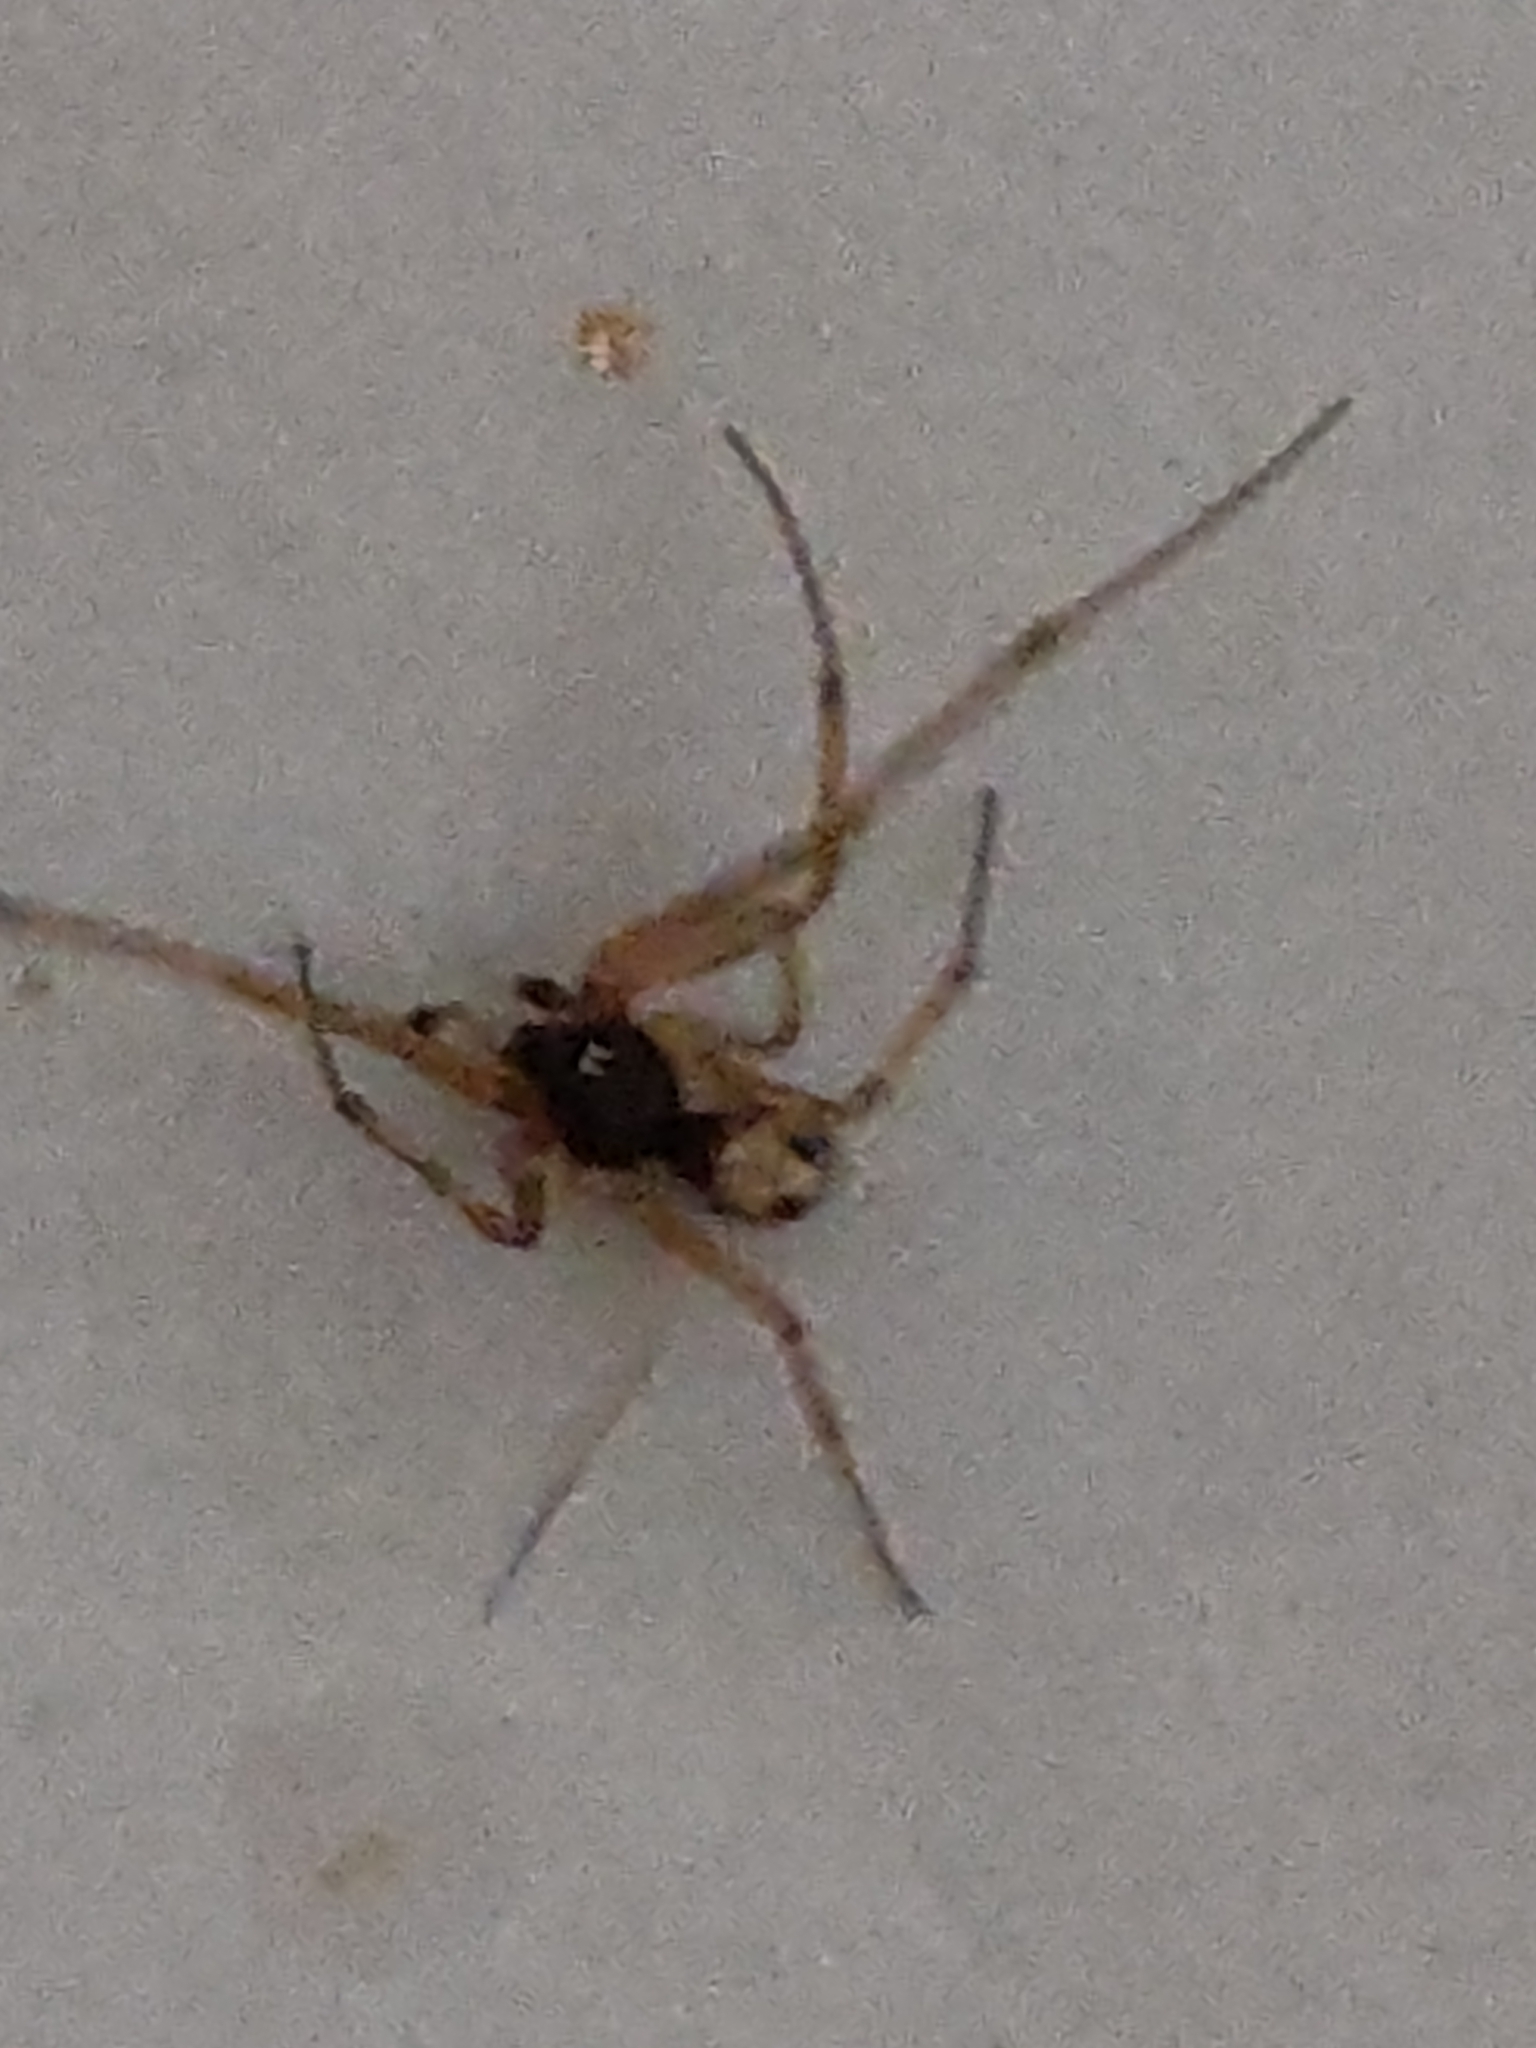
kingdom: Animalia
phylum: Arthropoda
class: Arachnida
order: Araneae
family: Theridiidae
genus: Steatoda
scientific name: Steatoda triangulosa
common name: Triangulate bud spider
